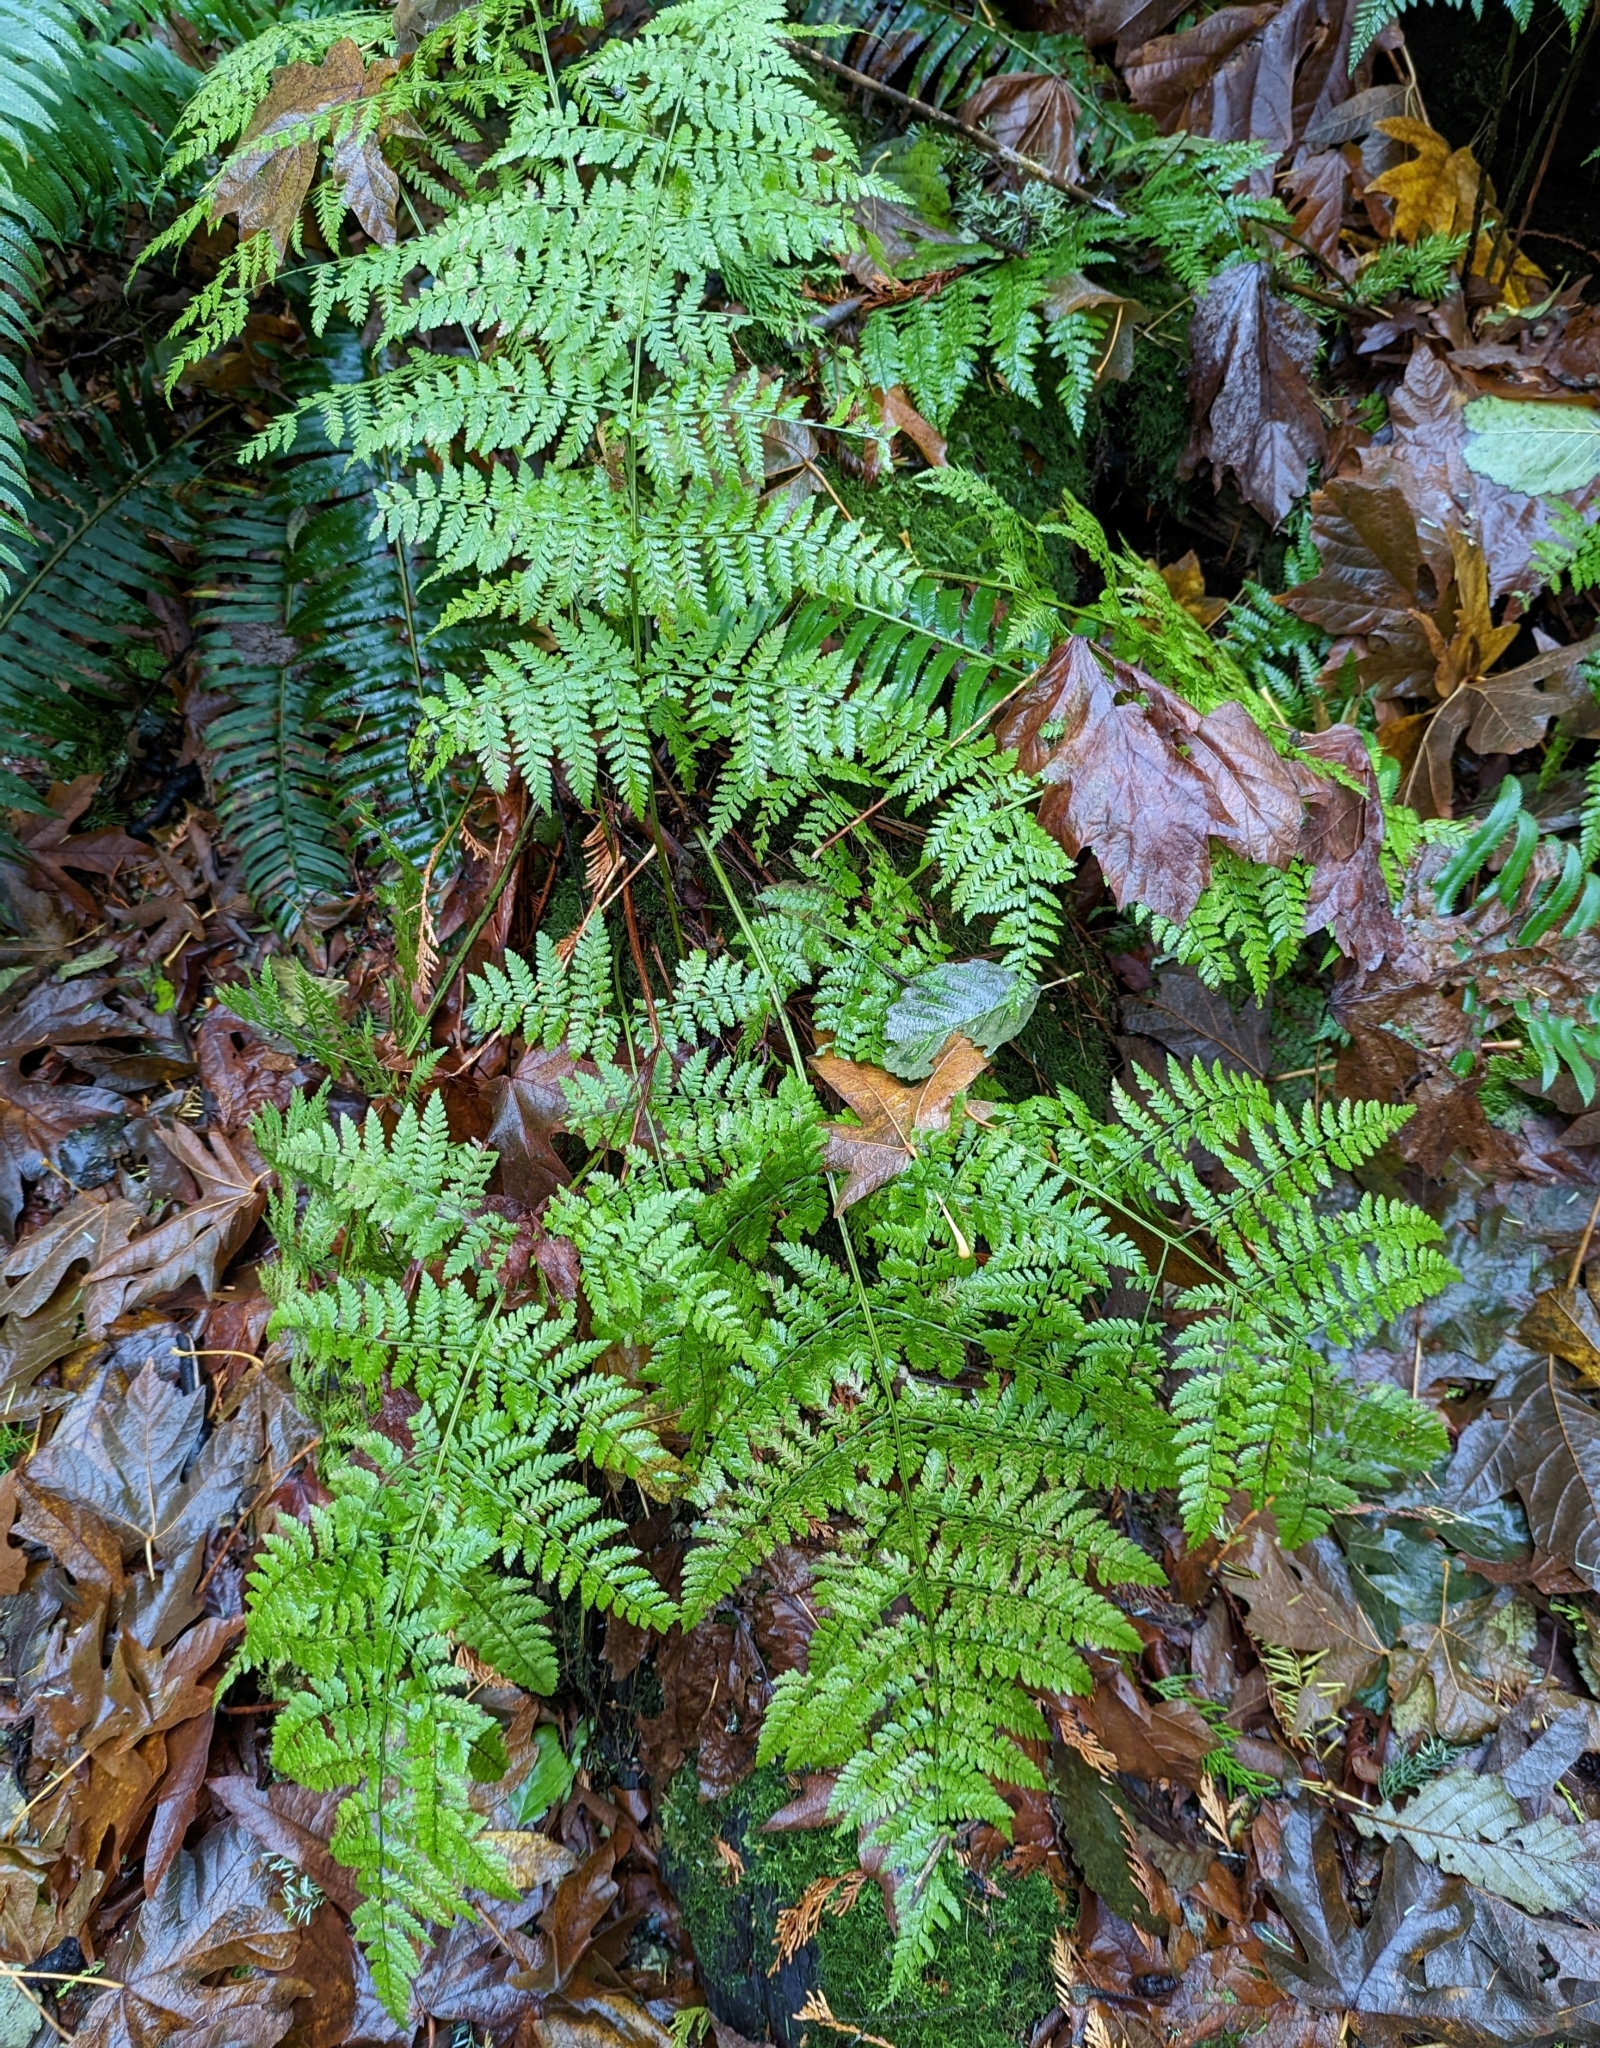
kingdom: Plantae
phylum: Tracheophyta
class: Polypodiopsida
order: Polypodiales
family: Dryopteridaceae
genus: Dryopteris
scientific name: Dryopteris expansa
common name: Northern buckler fern
